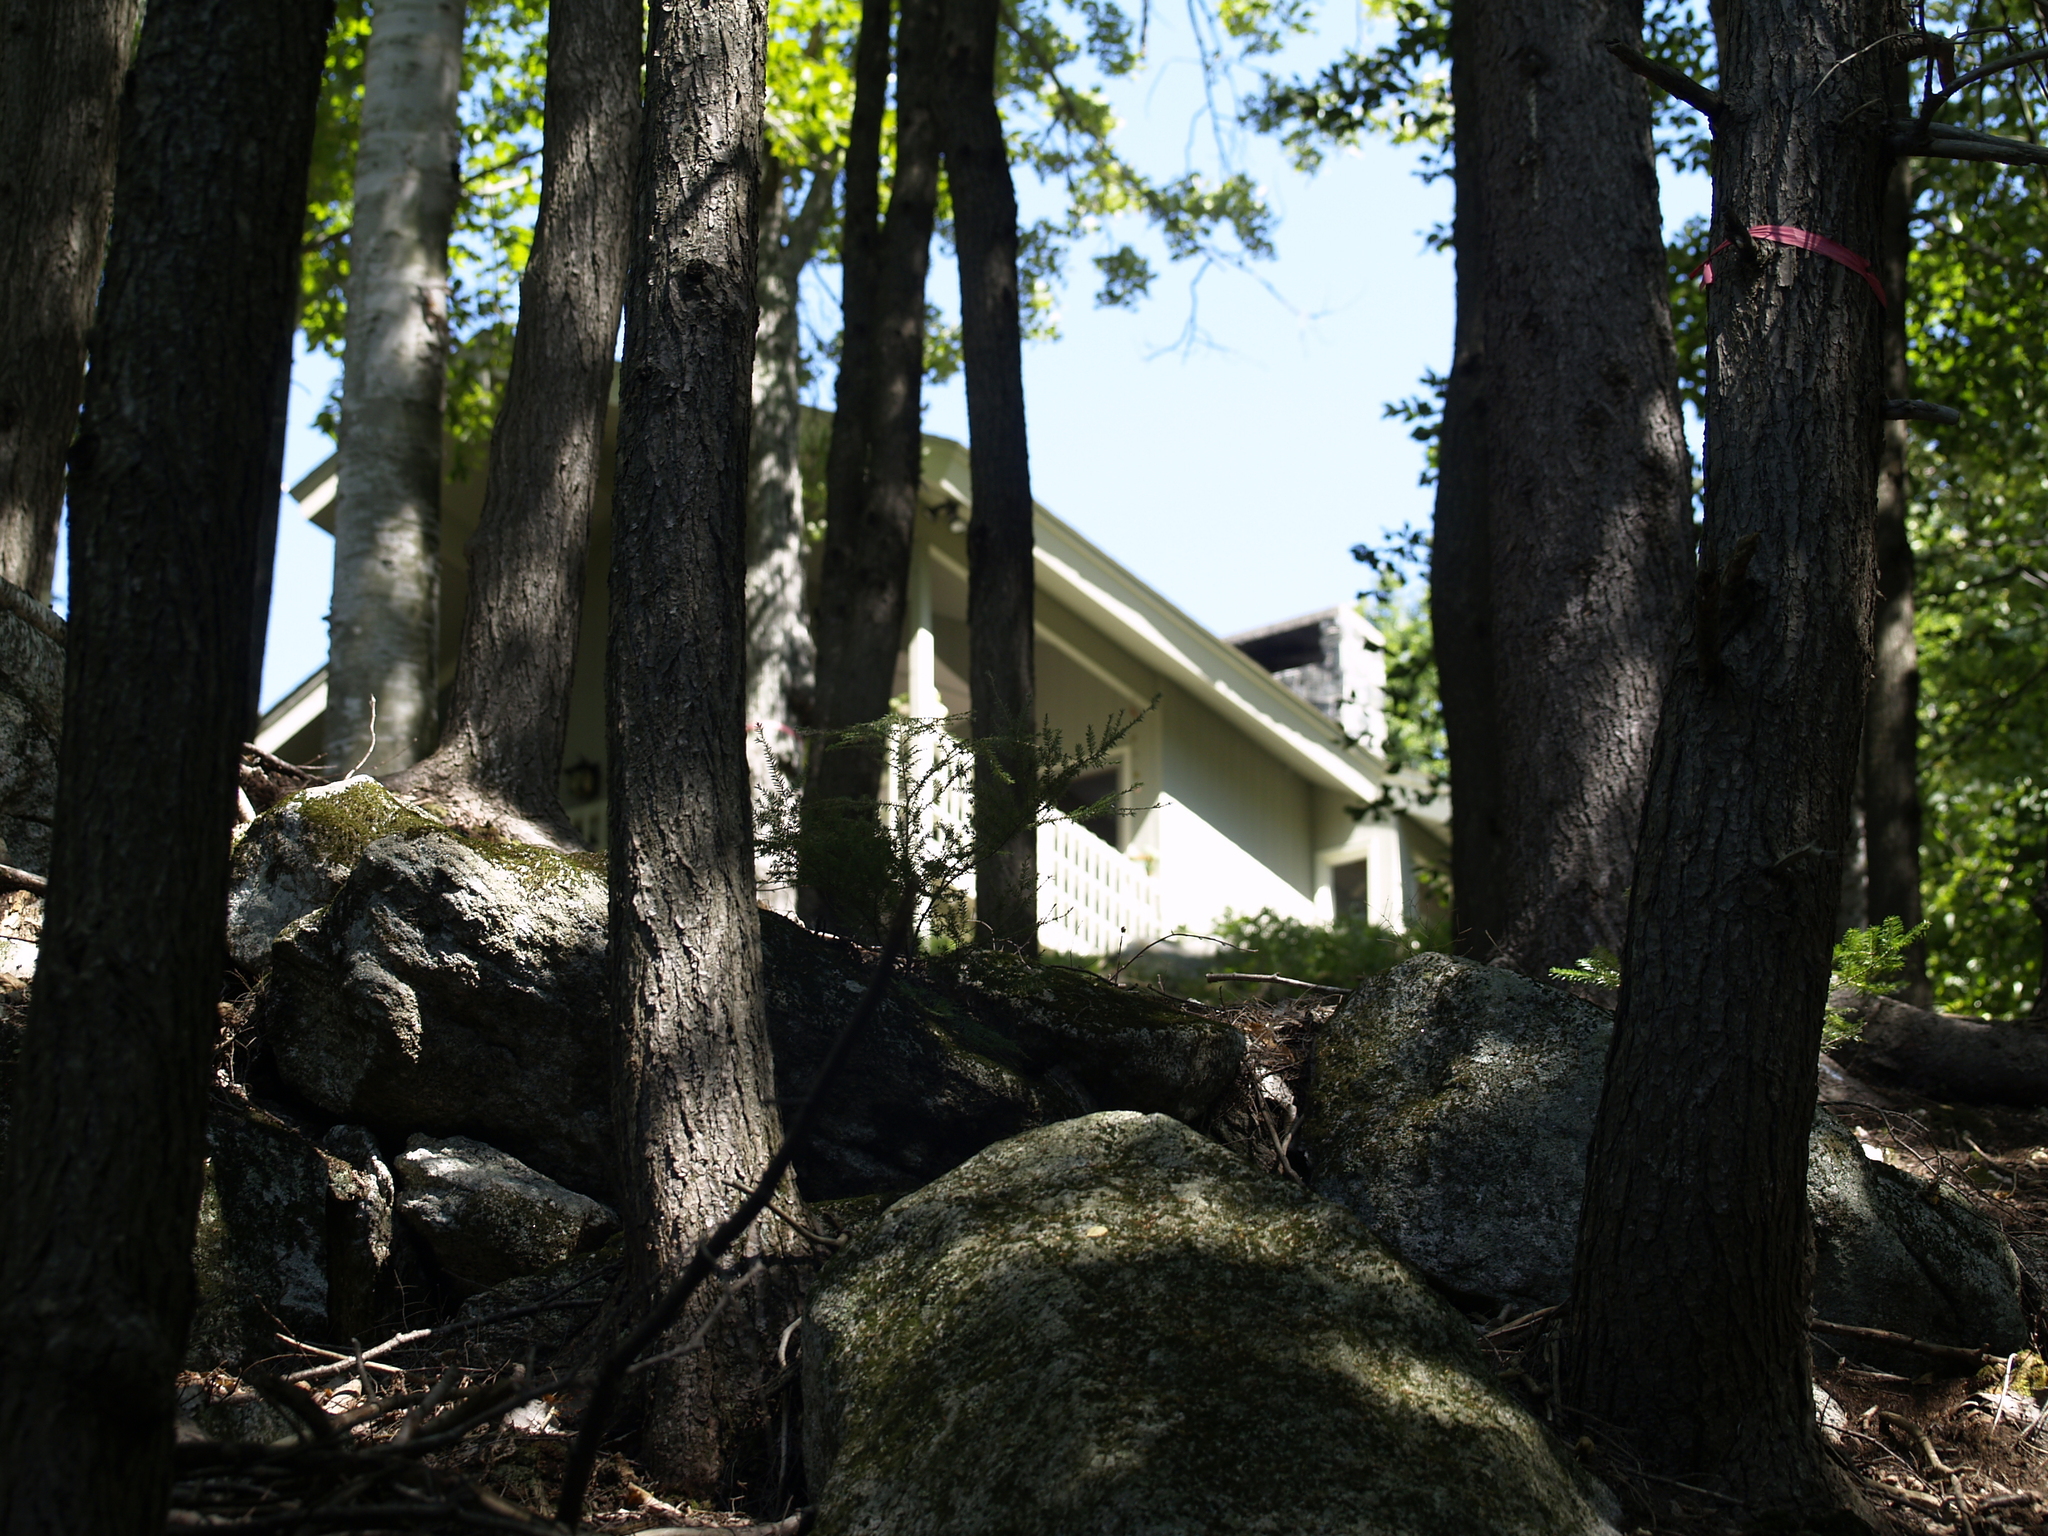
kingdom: Plantae
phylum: Tracheophyta
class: Pinopsida
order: Pinales
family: Pinaceae
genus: Tsuga
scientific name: Tsuga canadensis
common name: Eastern hemlock
